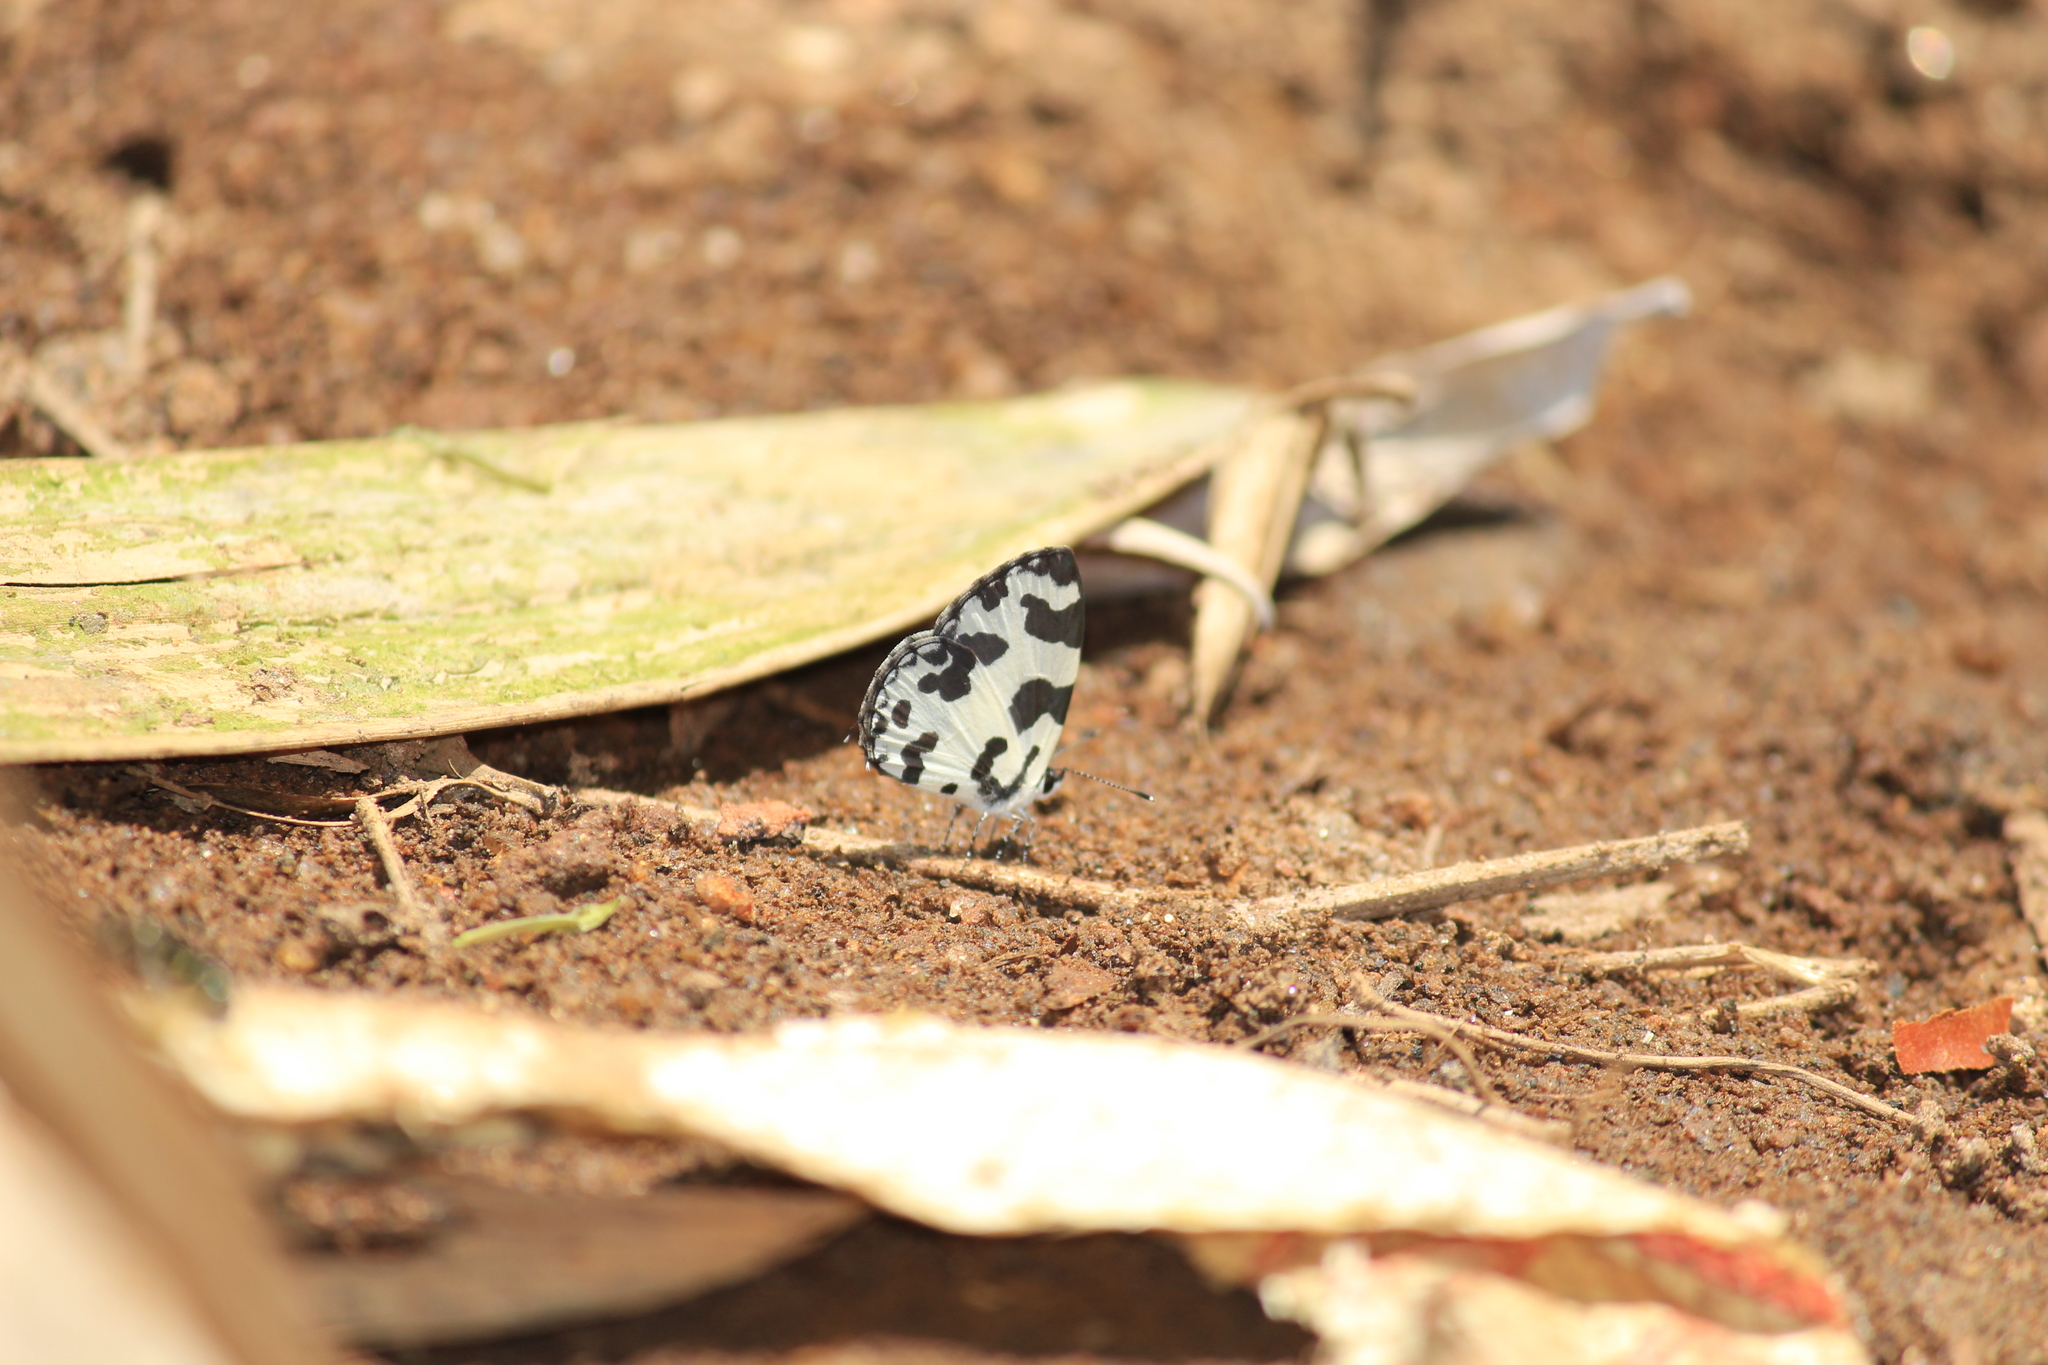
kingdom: Animalia
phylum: Arthropoda
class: Insecta
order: Lepidoptera
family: Lycaenidae
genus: Caleta
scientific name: Caleta decidia
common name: Angled pierrot
